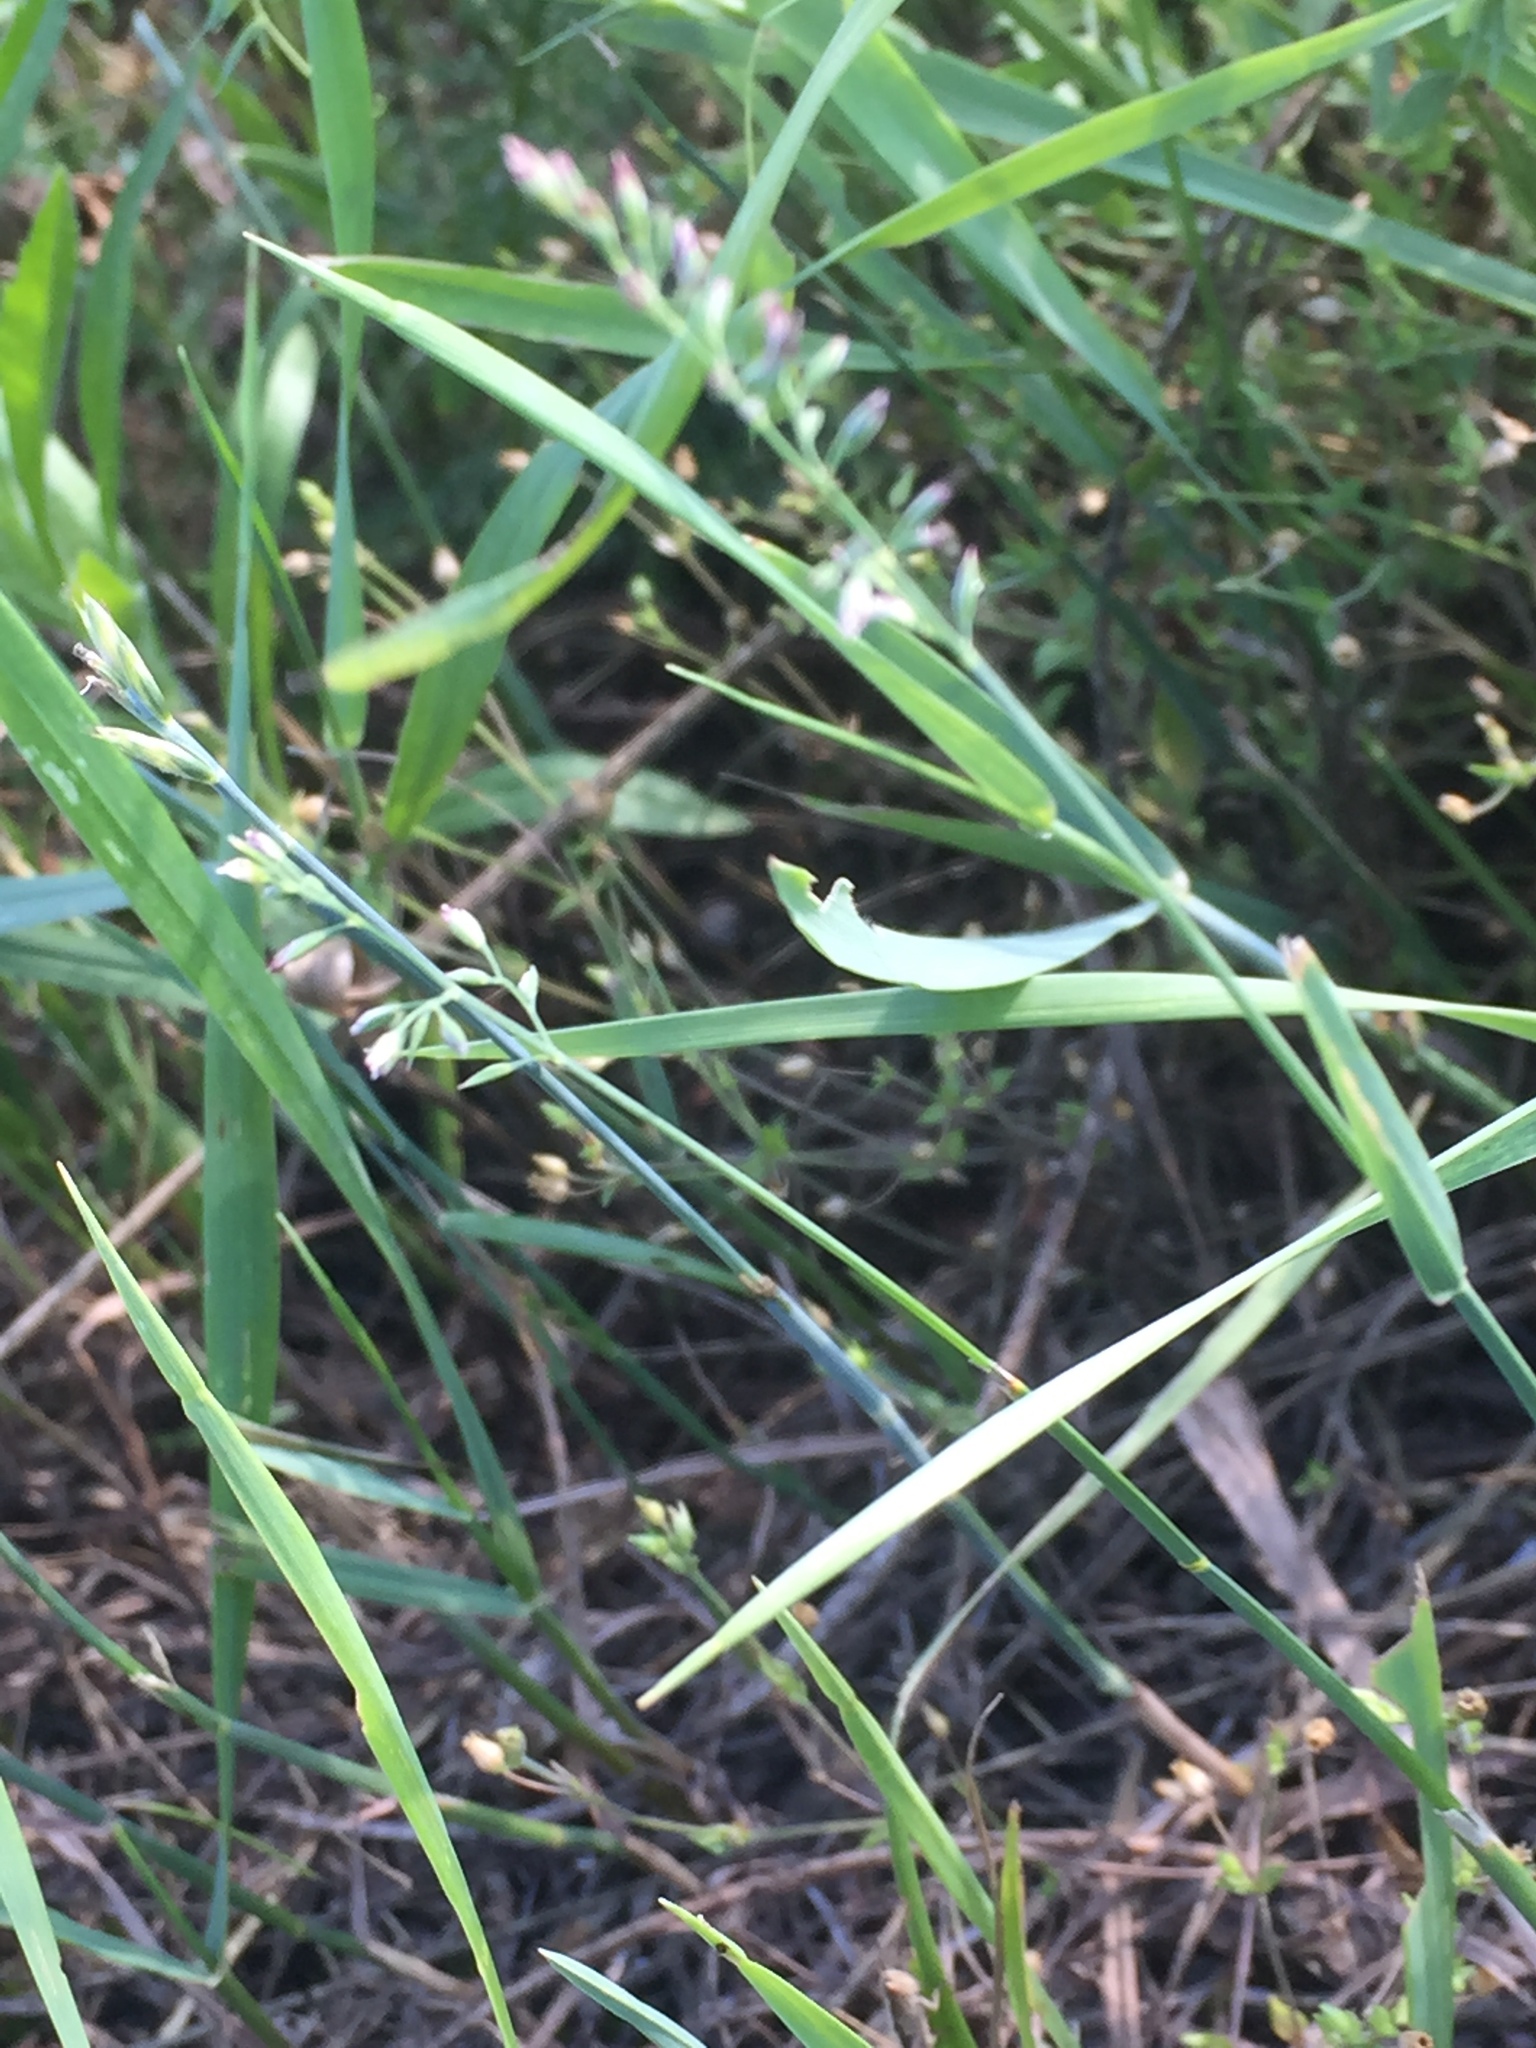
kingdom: Plantae
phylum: Tracheophyta
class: Liliopsida
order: Poales
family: Poaceae
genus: Poa
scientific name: Poa compressa
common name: Canada bluegrass
